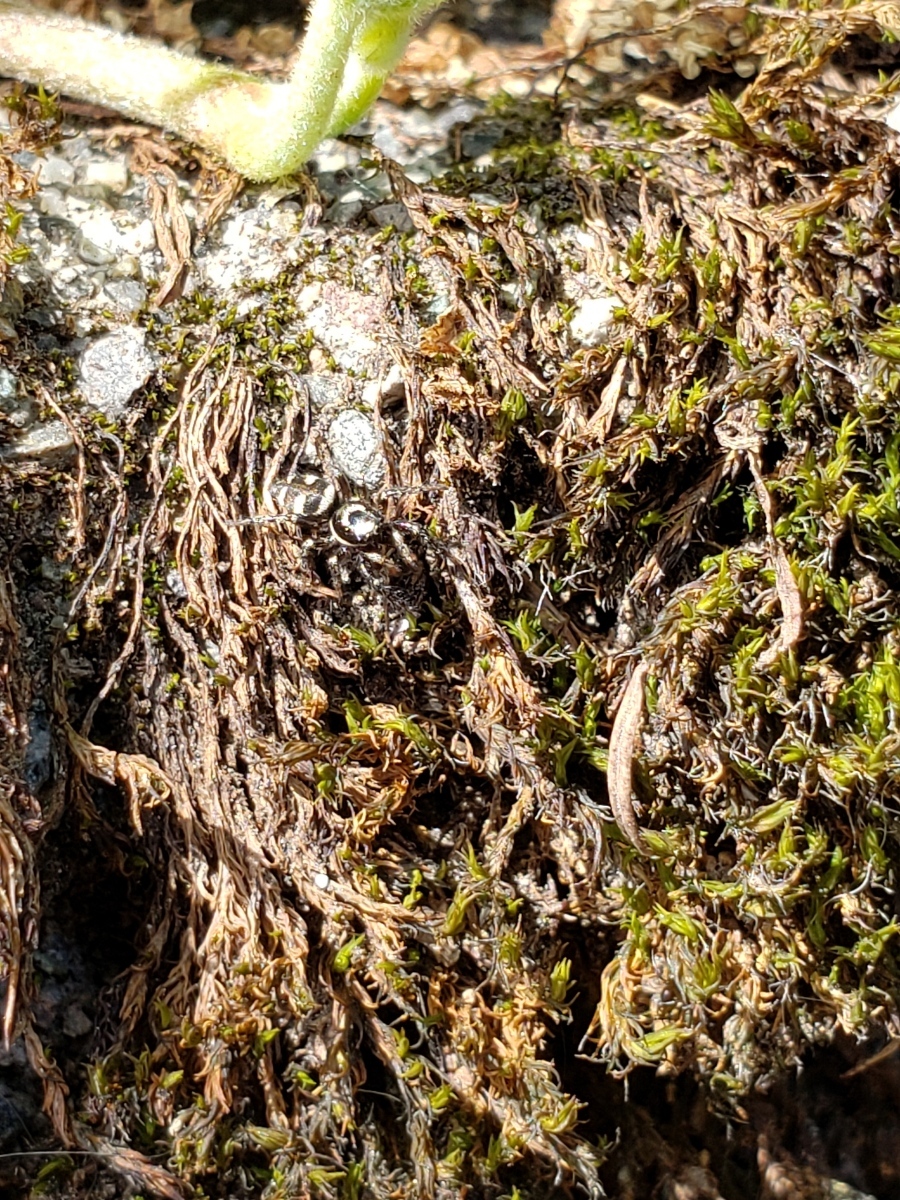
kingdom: Animalia
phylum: Arthropoda
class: Arachnida
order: Araneae
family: Salticidae
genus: Salticus
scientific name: Salticus scenicus
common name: Zebra jumper
